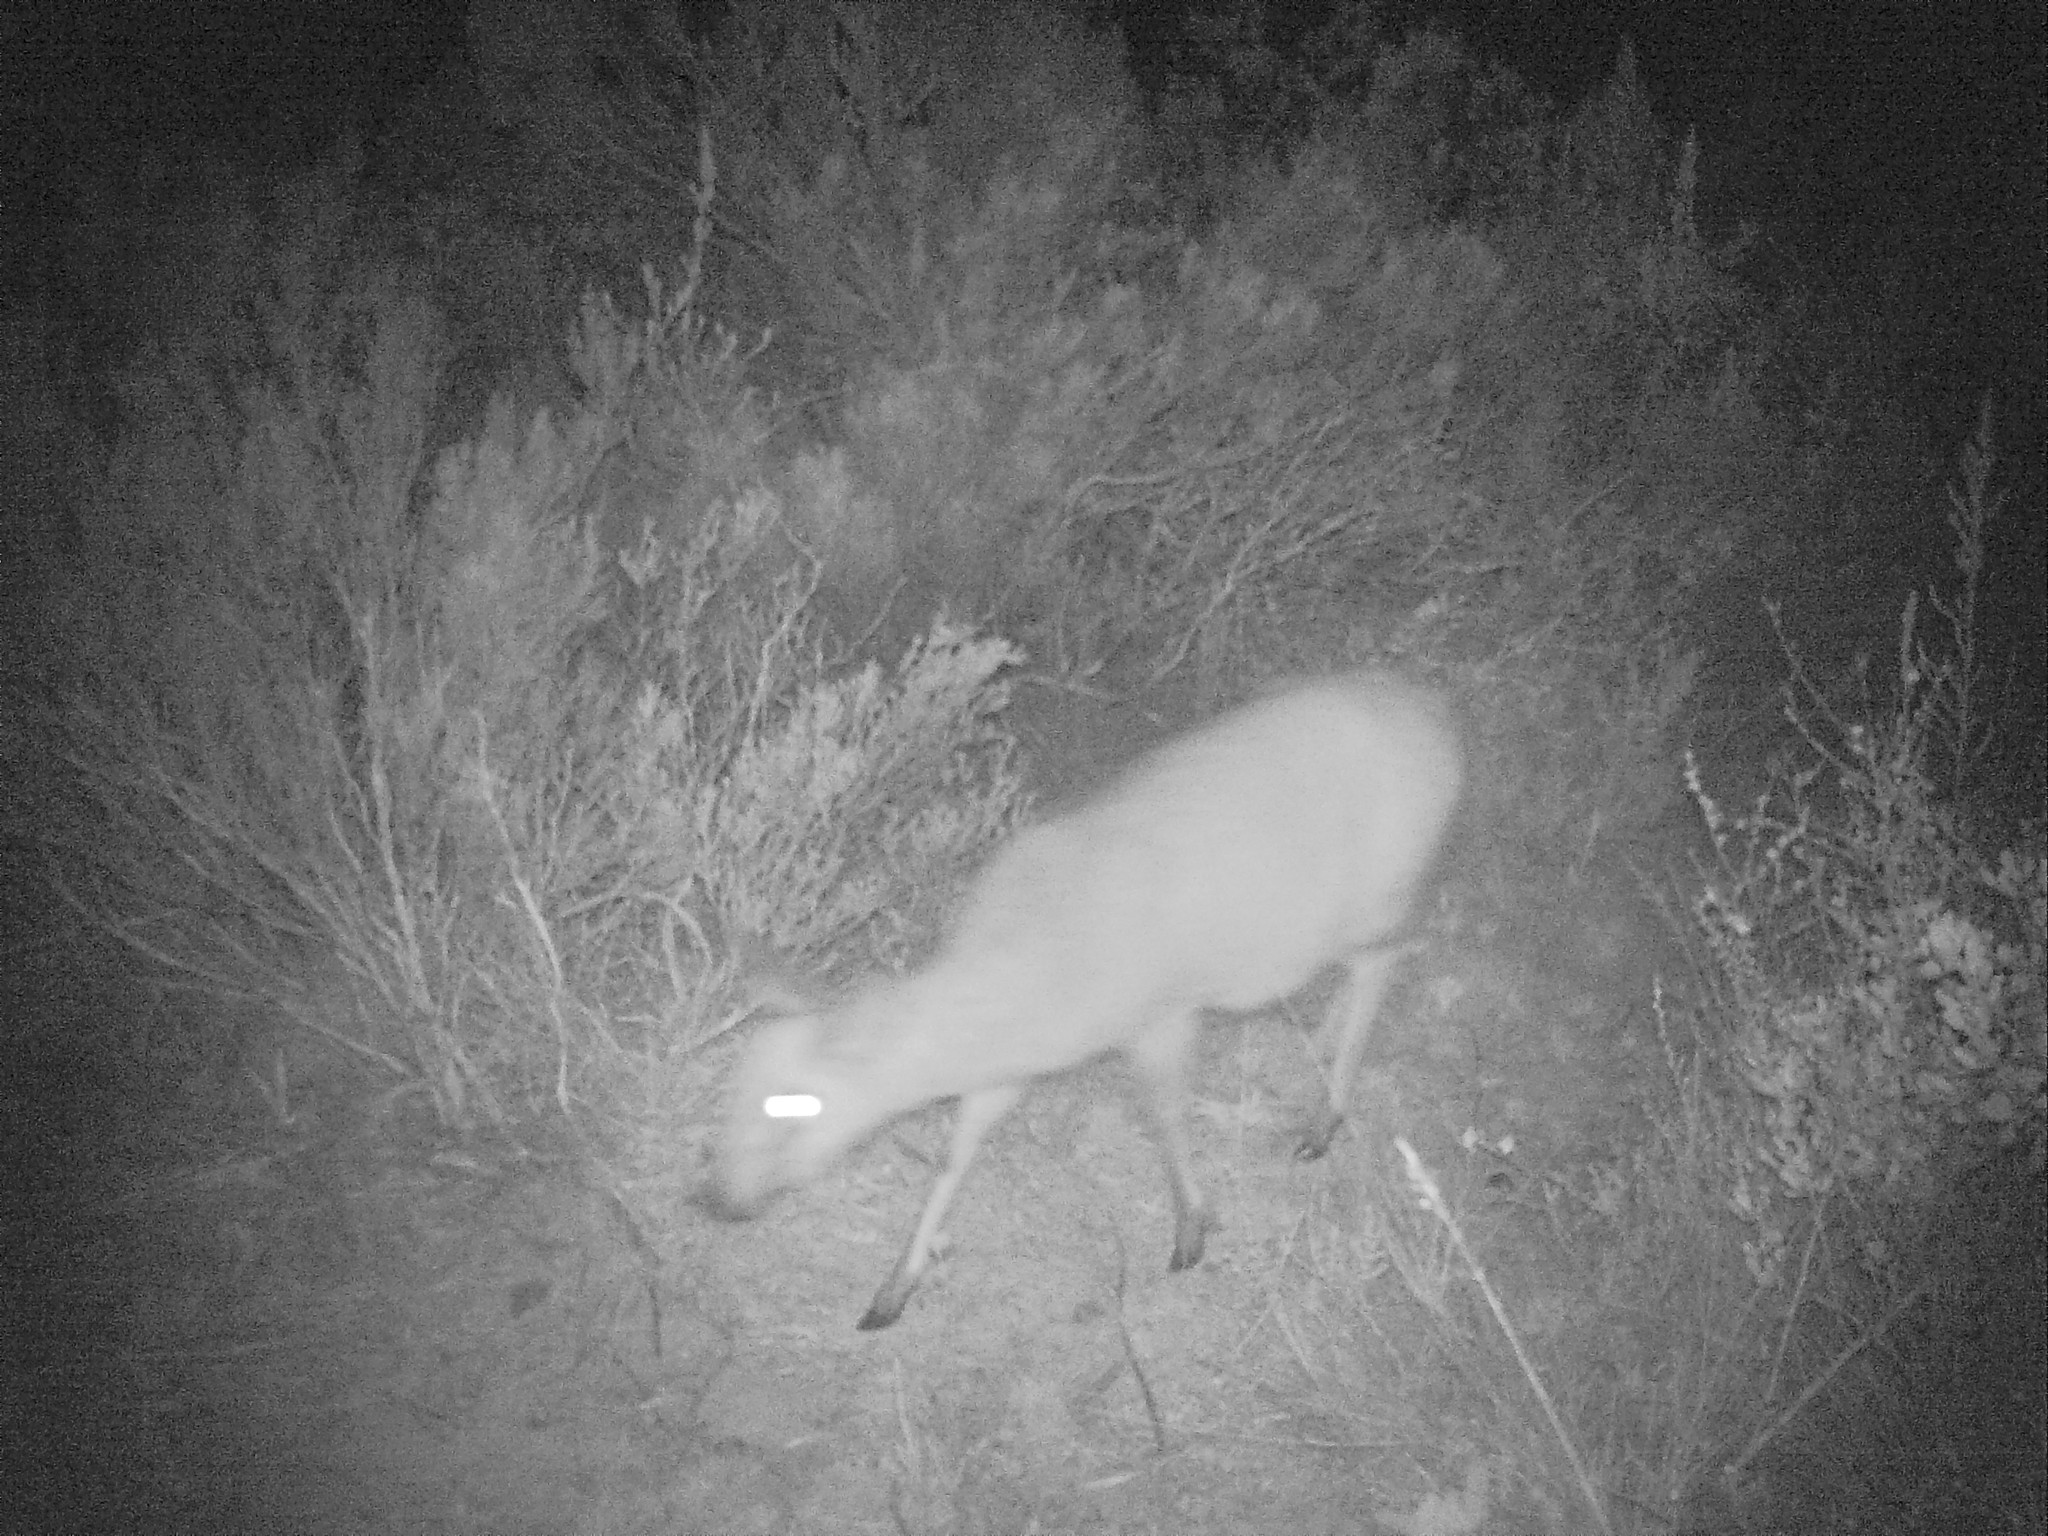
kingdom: Animalia
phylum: Chordata
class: Mammalia
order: Artiodactyla
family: Bovidae
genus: Sylvicapra
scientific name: Sylvicapra grimmia
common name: Bush duiker
